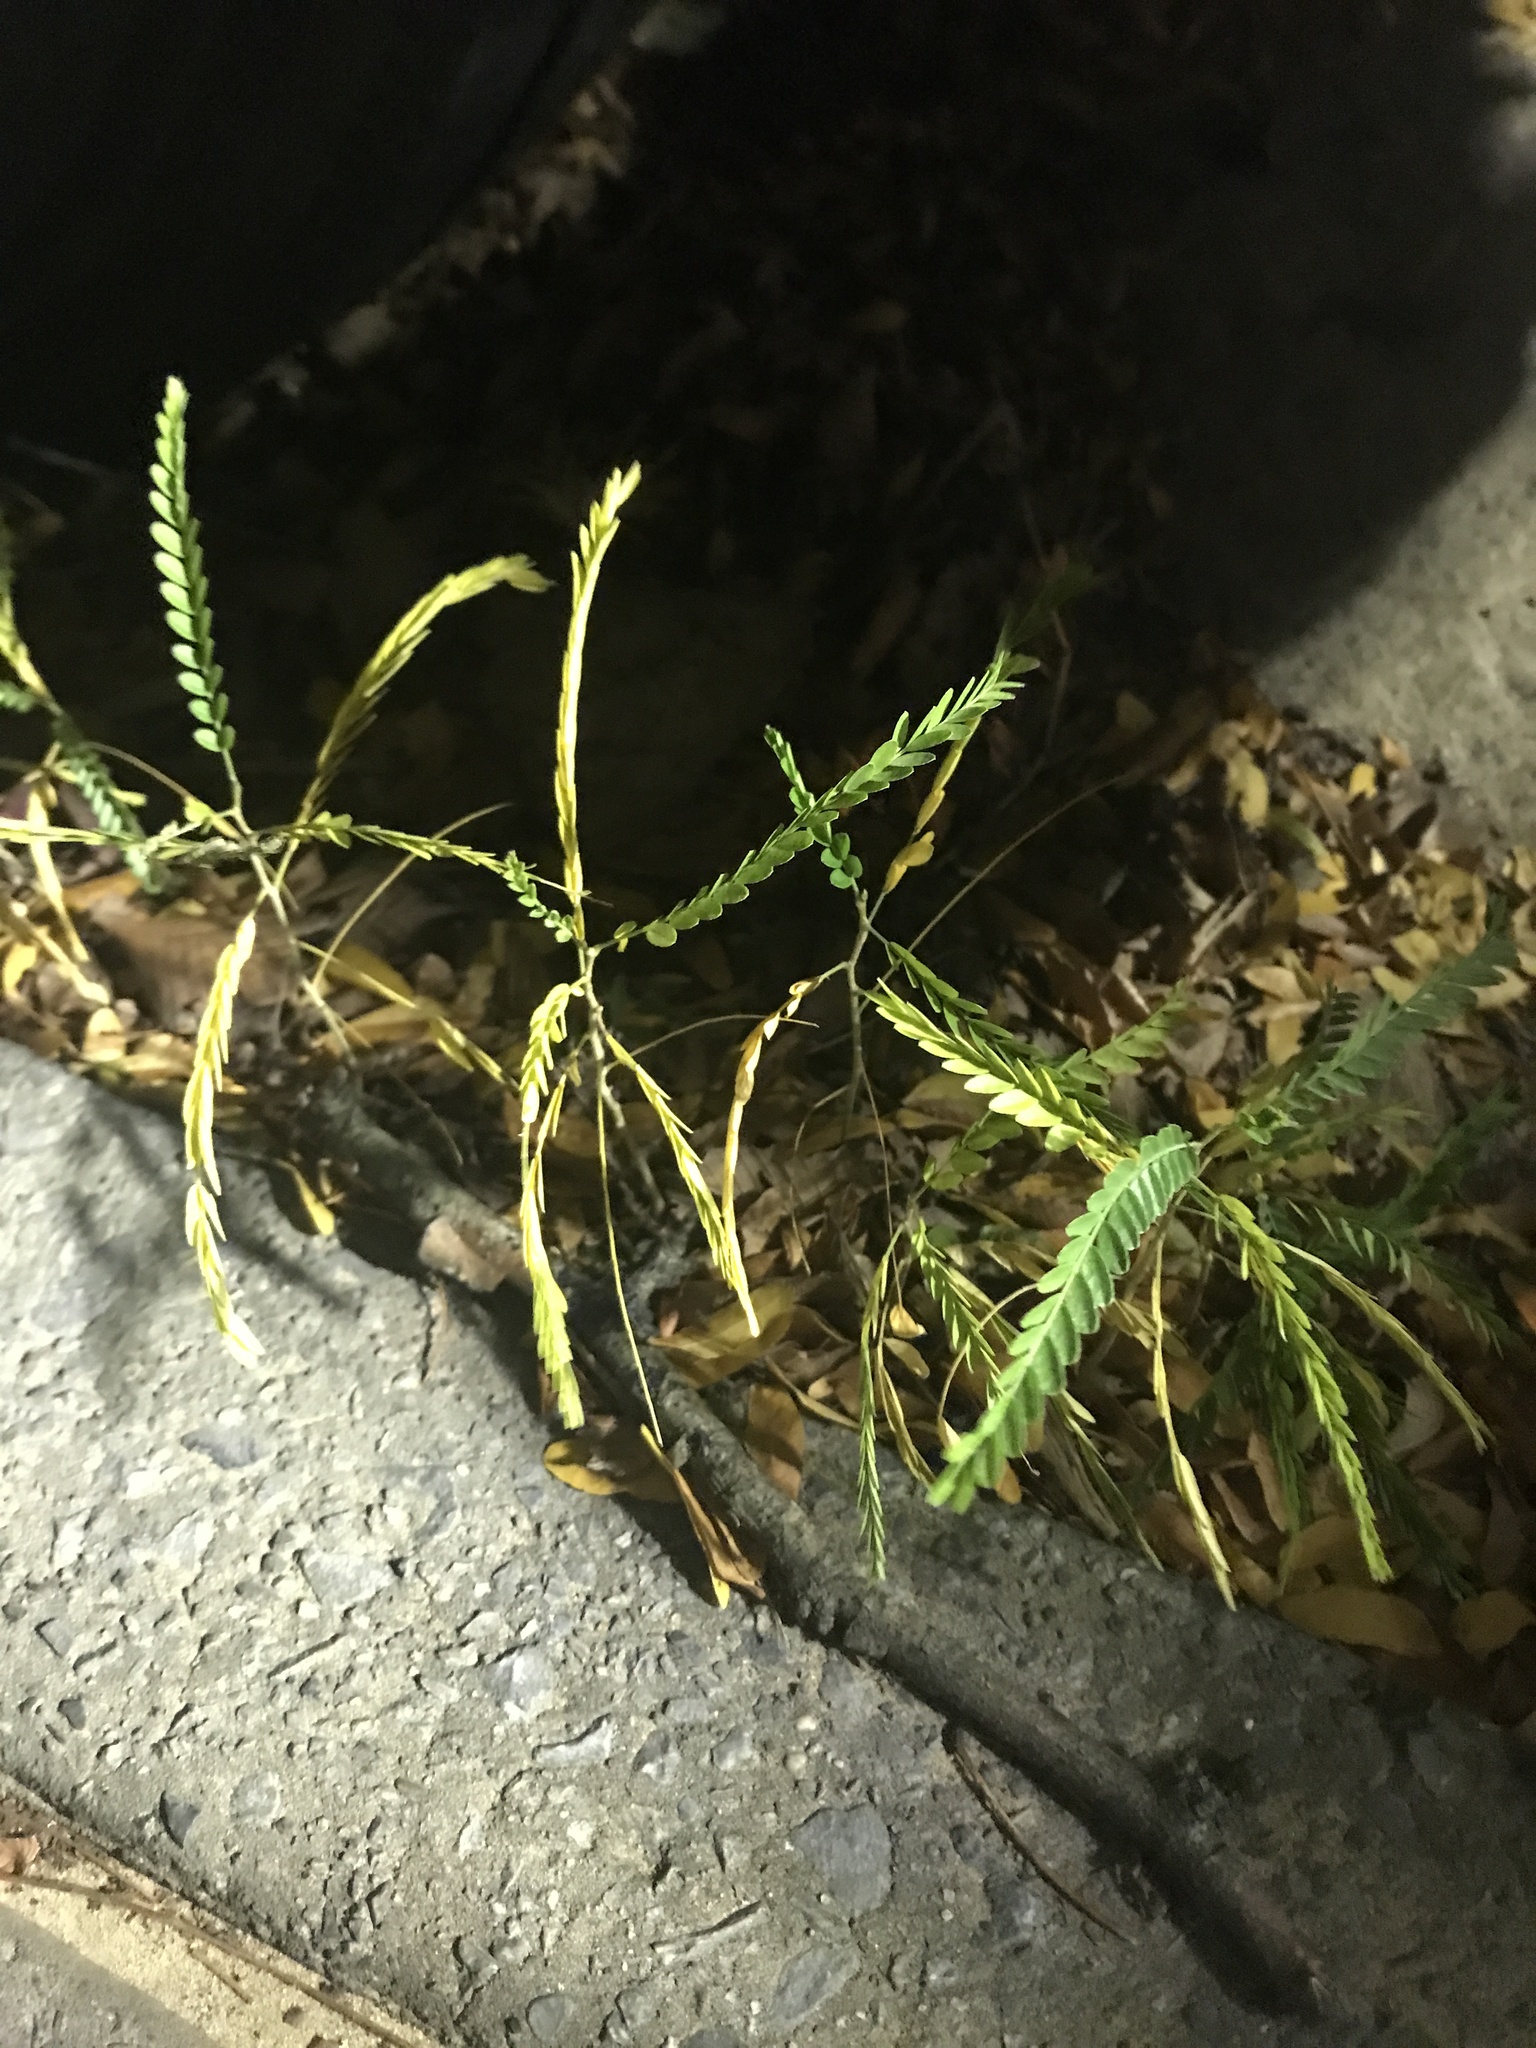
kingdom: Plantae
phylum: Tracheophyta
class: Magnoliopsida
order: Fabales
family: Fabaceae
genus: Gleditsia
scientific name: Gleditsia triacanthos
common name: Common honeylocust
